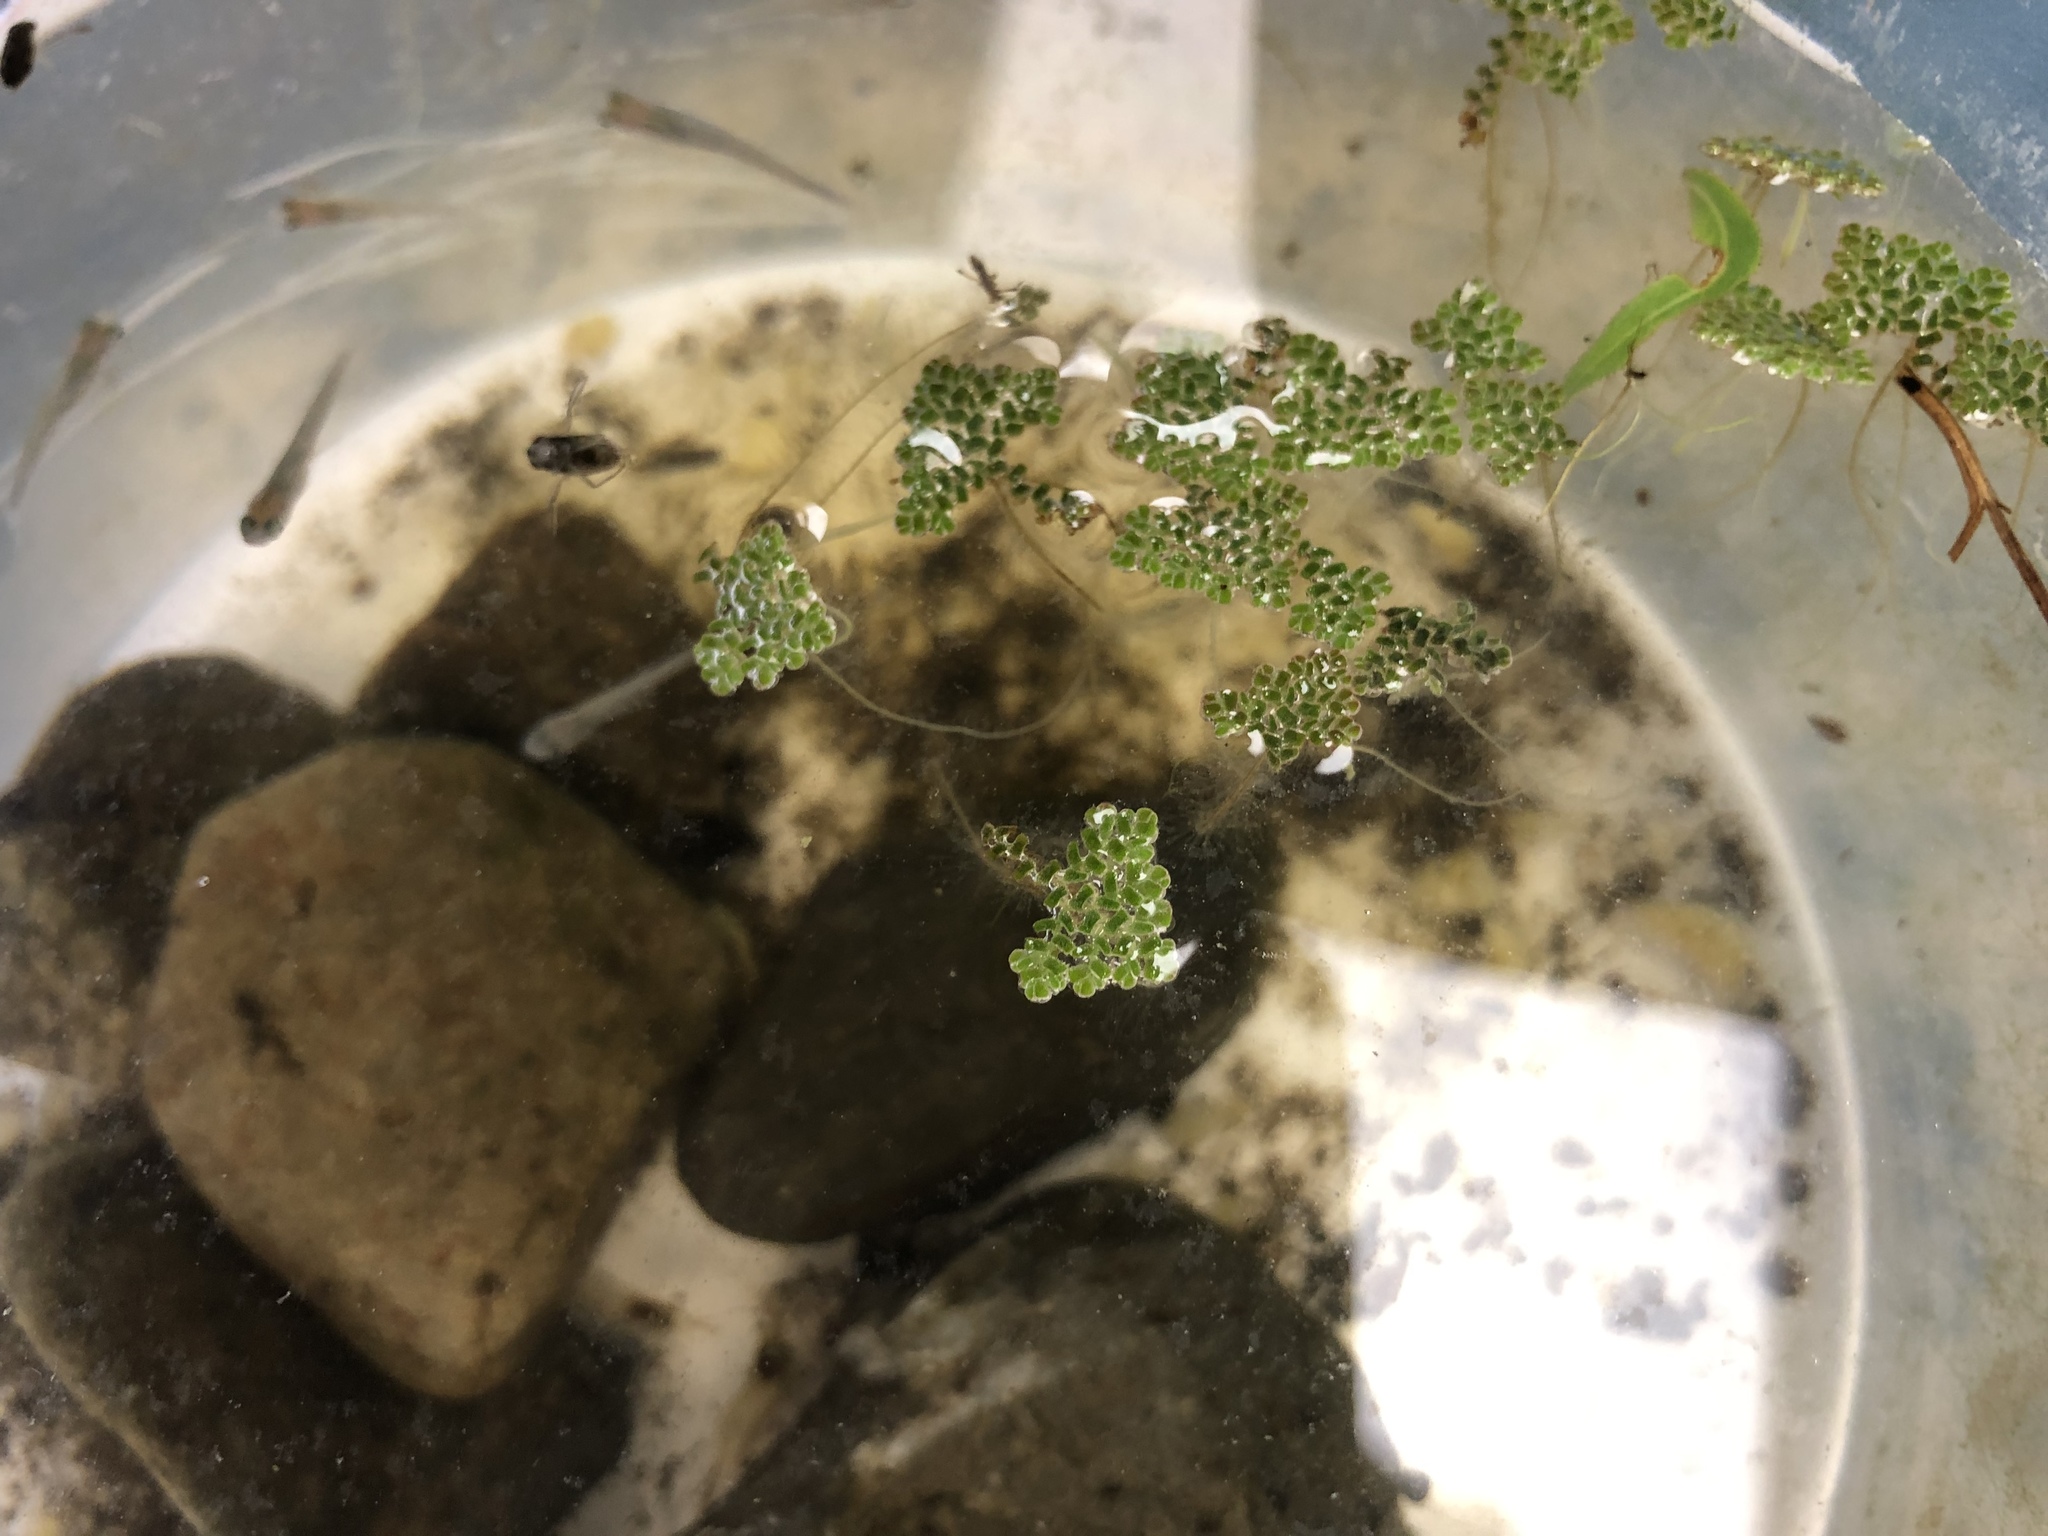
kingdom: Plantae
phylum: Tracheophyta
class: Polypodiopsida
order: Salviniales
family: Salviniaceae
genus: Azolla
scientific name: Azolla pinnata
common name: Ferny azolla
